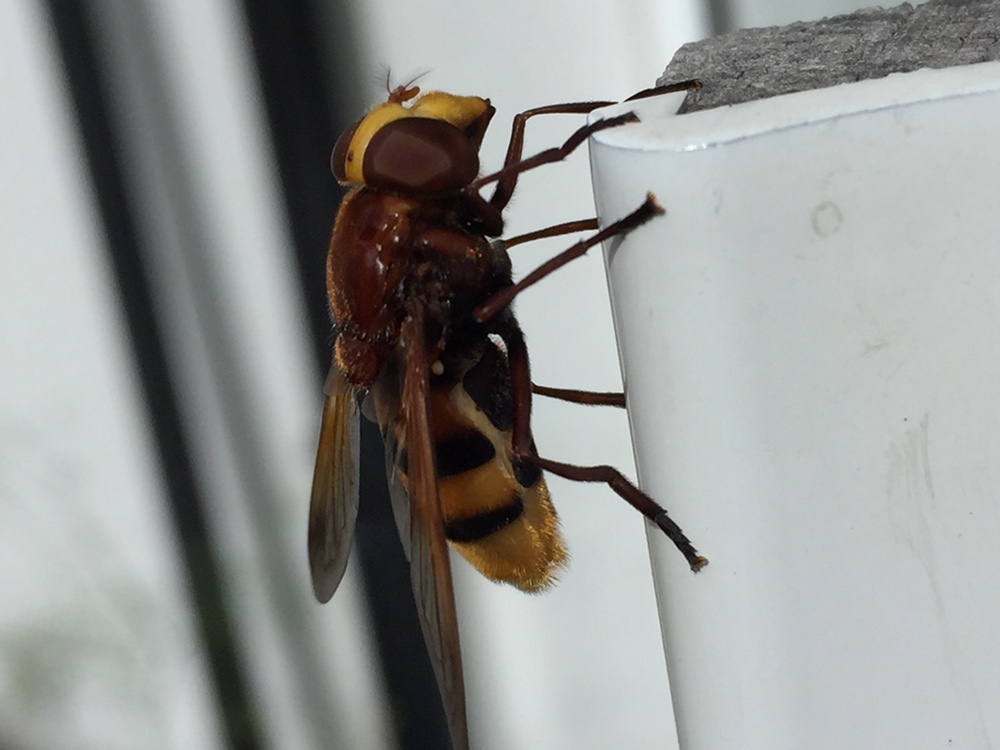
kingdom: Animalia
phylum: Arthropoda
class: Insecta
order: Diptera
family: Syrphidae
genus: Volucella
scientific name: Volucella zonaria
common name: Hornet hoverfly
